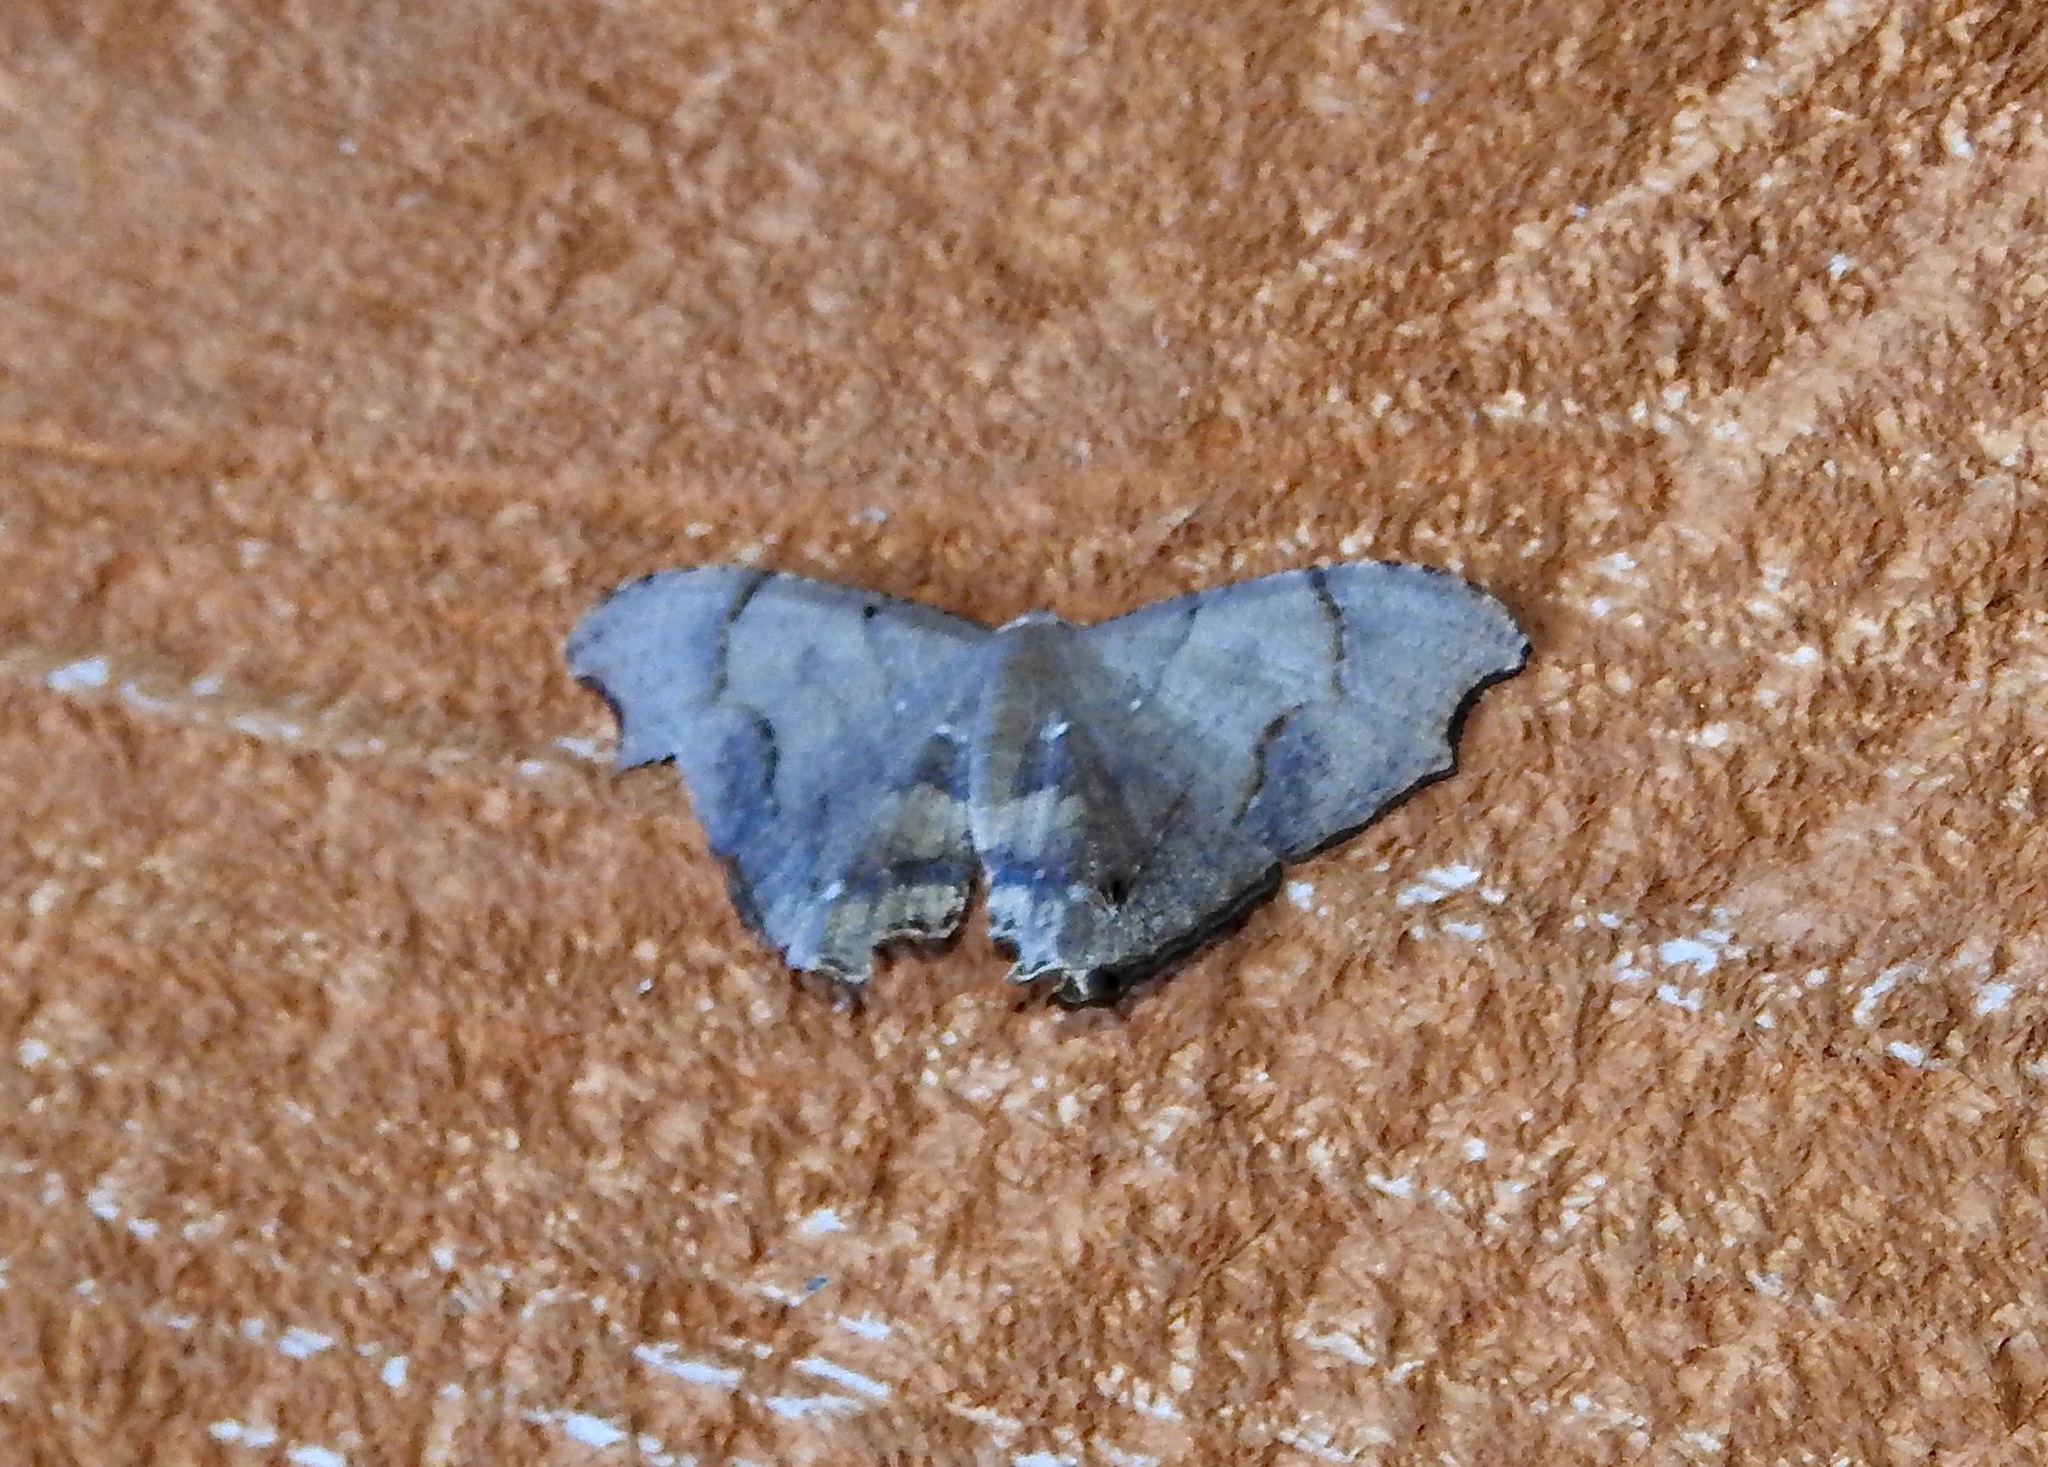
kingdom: Animalia
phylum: Arthropoda
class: Insecta
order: Lepidoptera
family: Uraniidae
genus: Trotorhombia
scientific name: Trotorhombia metachromata
